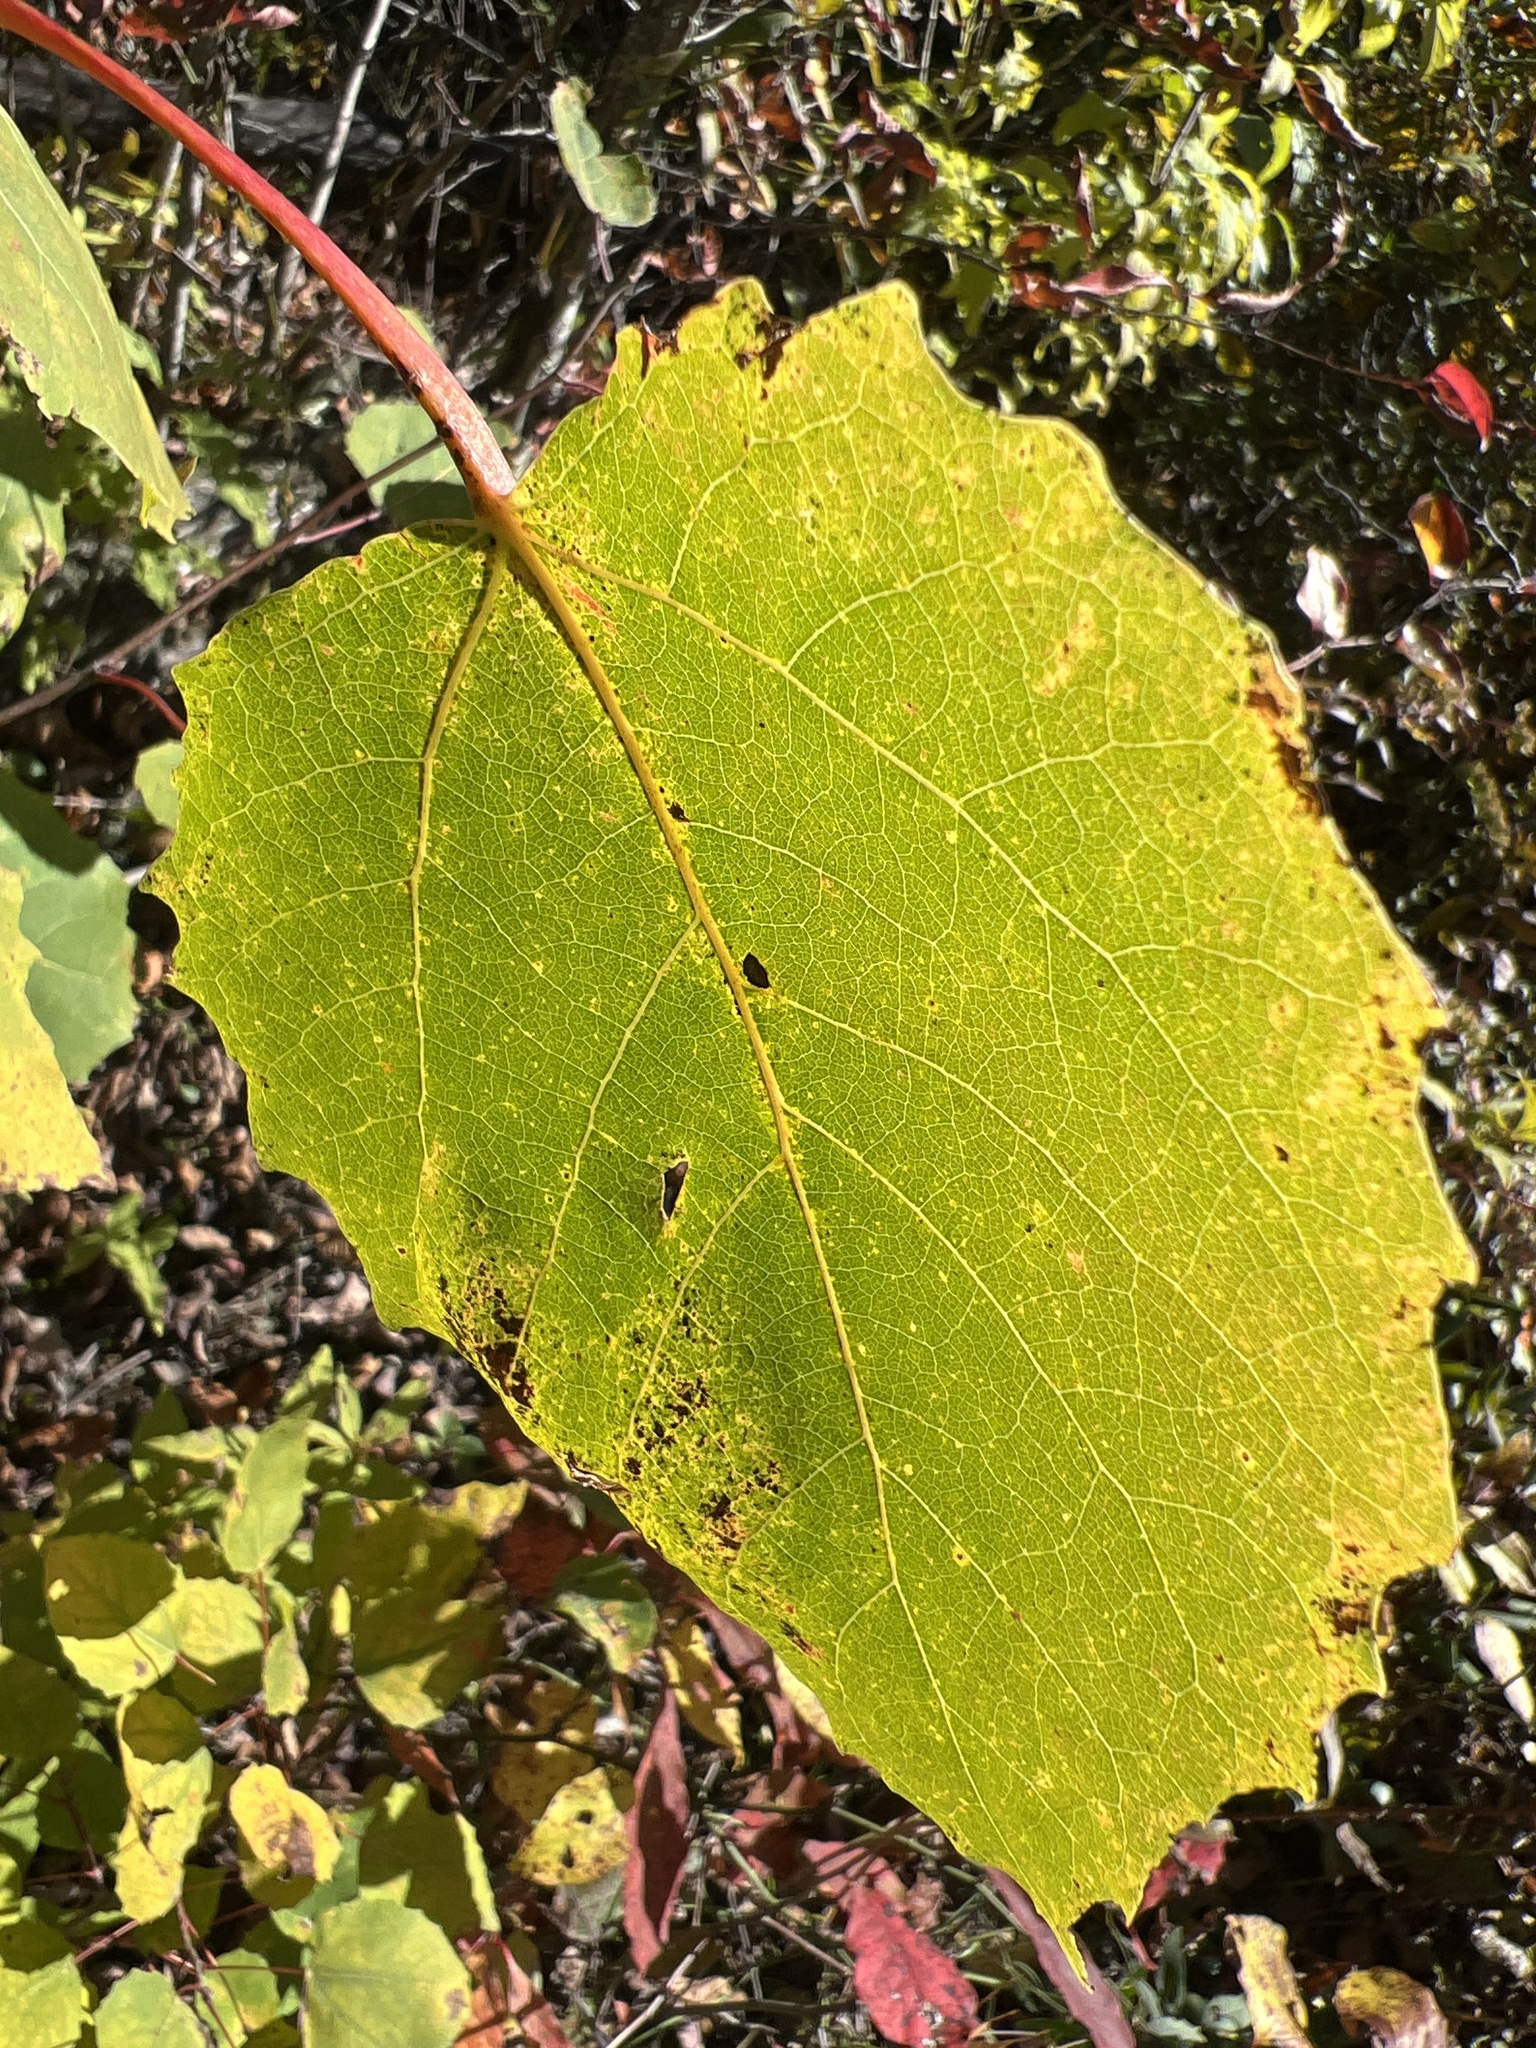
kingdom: Plantae
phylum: Tracheophyta
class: Magnoliopsida
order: Malpighiales
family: Salicaceae
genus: Populus
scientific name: Populus grandidentata
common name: Bigtooth aspen
